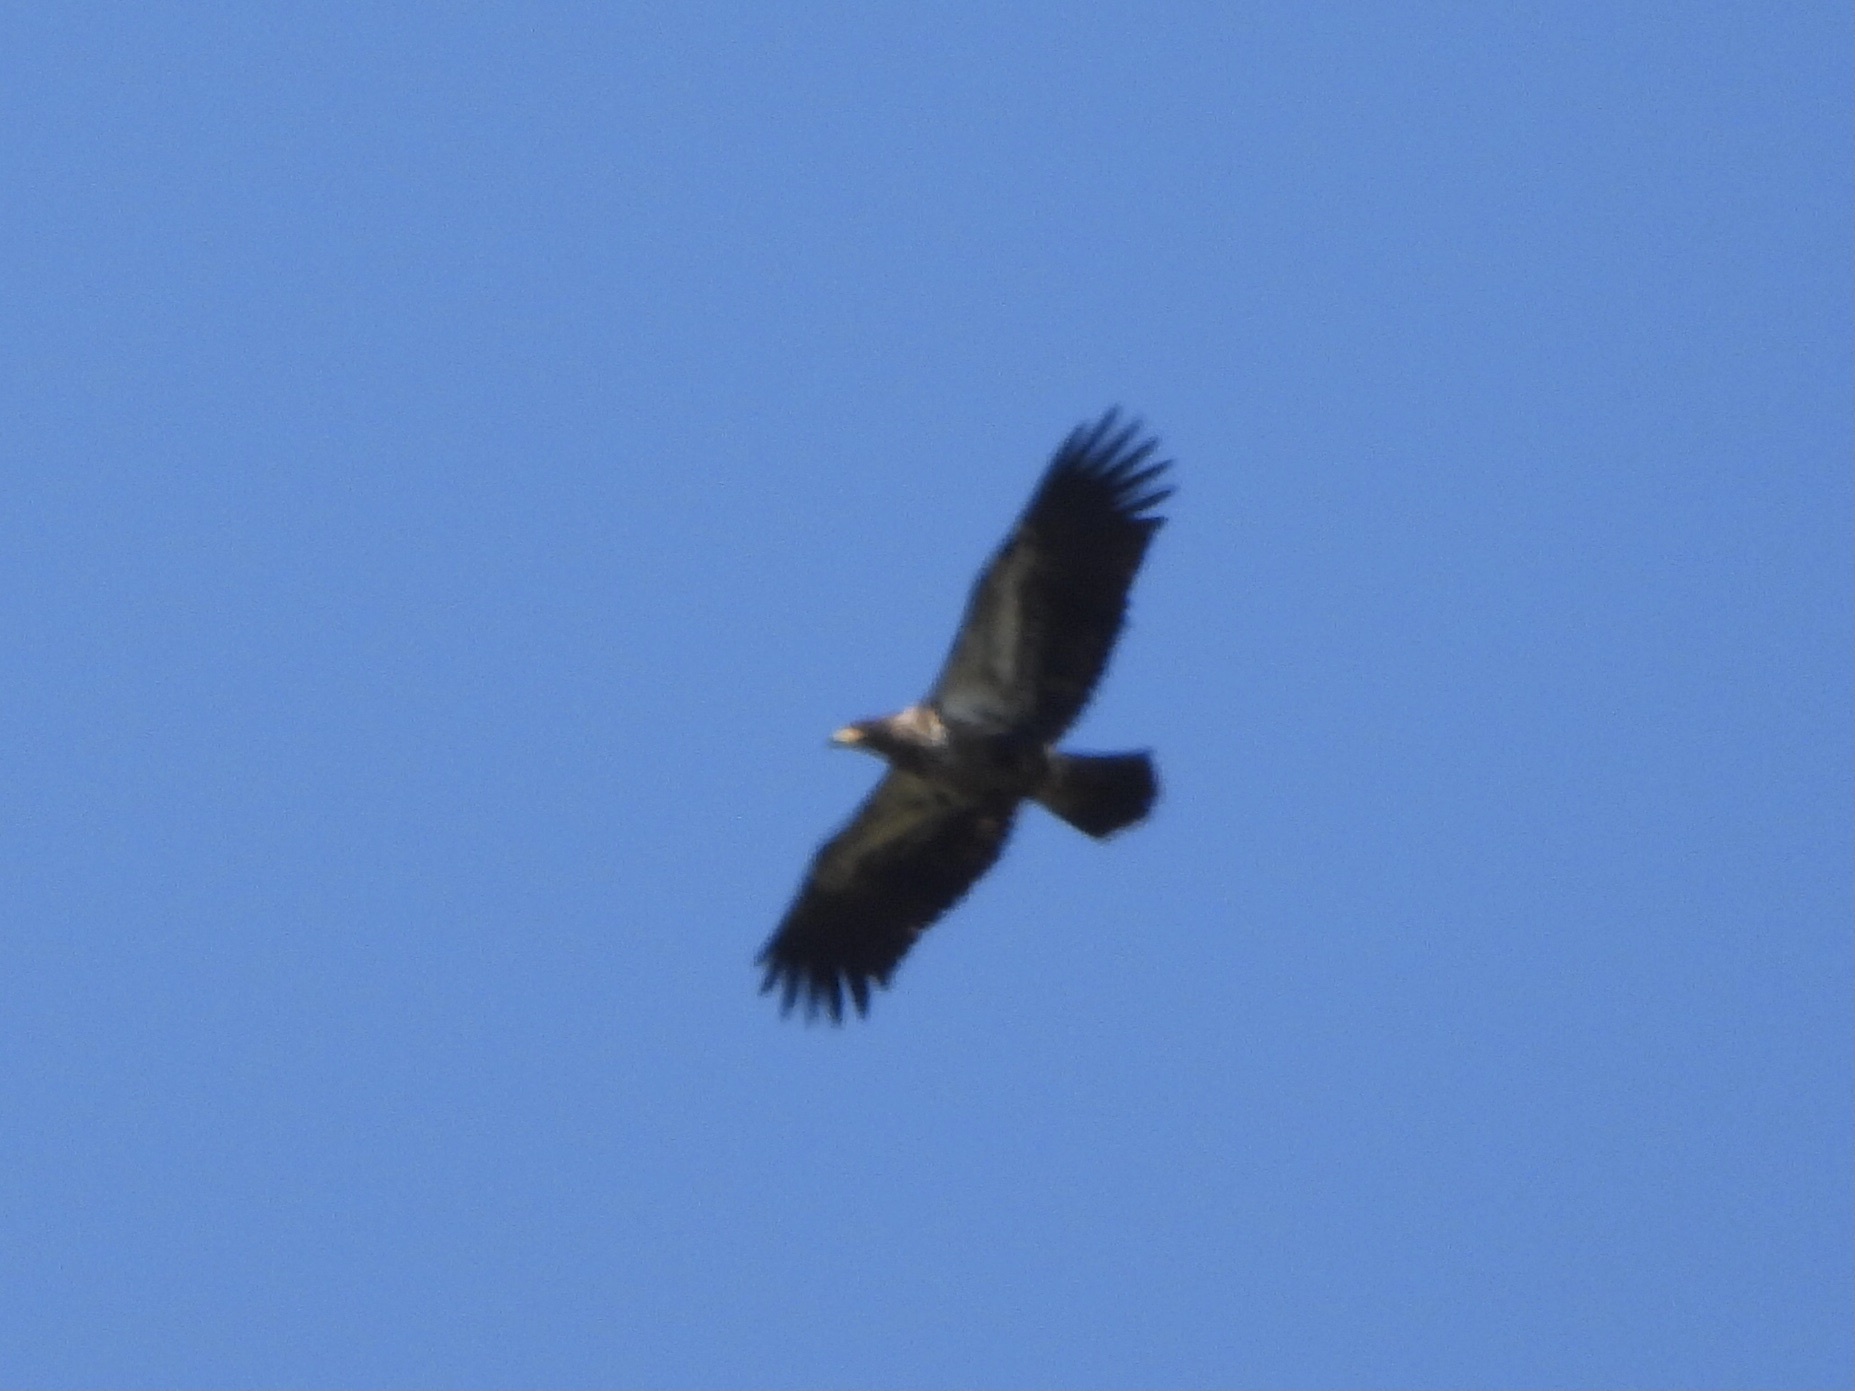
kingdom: Animalia
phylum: Chordata
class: Aves
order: Accipitriformes
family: Accipitridae
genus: Haliaeetus
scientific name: Haliaeetus leucocephalus
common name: Bald eagle
